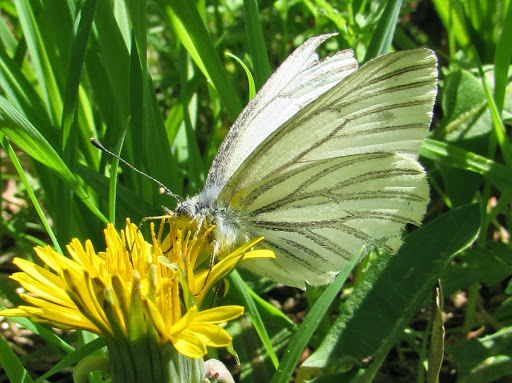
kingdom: Animalia
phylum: Arthropoda
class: Insecta
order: Lepidoptera
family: Pieridae
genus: Pieris
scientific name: Pieris marginalis
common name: Margined white
